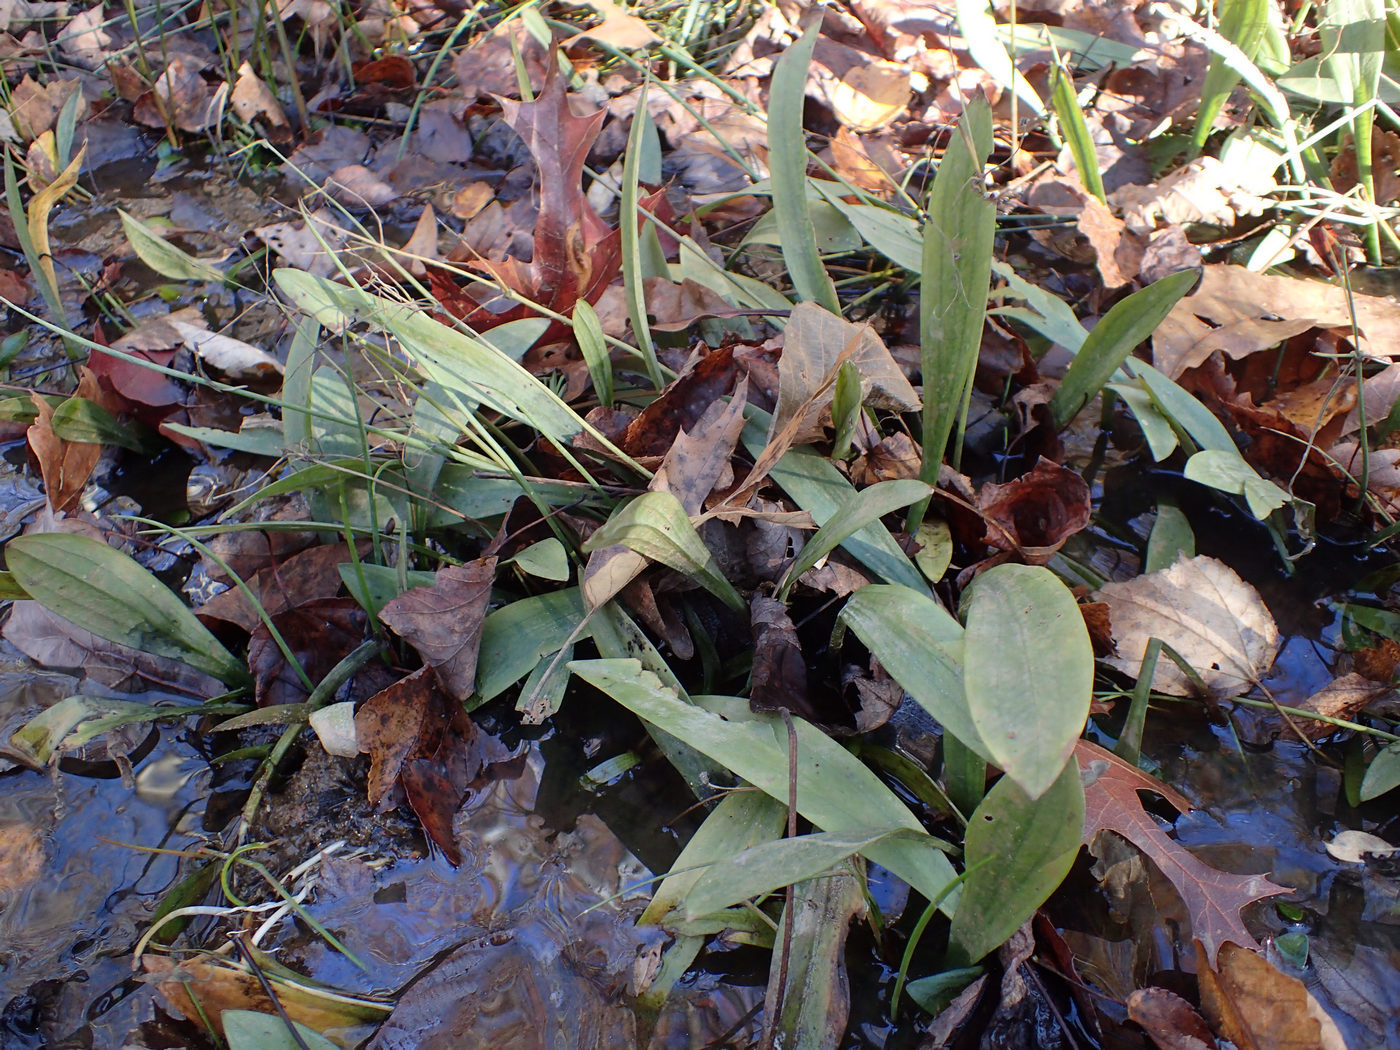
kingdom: Plantae
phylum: Tracheophyta
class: Liliopsida
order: Alismatales
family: Alismataceae
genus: Sagittaria
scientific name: Sagittaria fasciculata
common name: Bunched arrowhead
